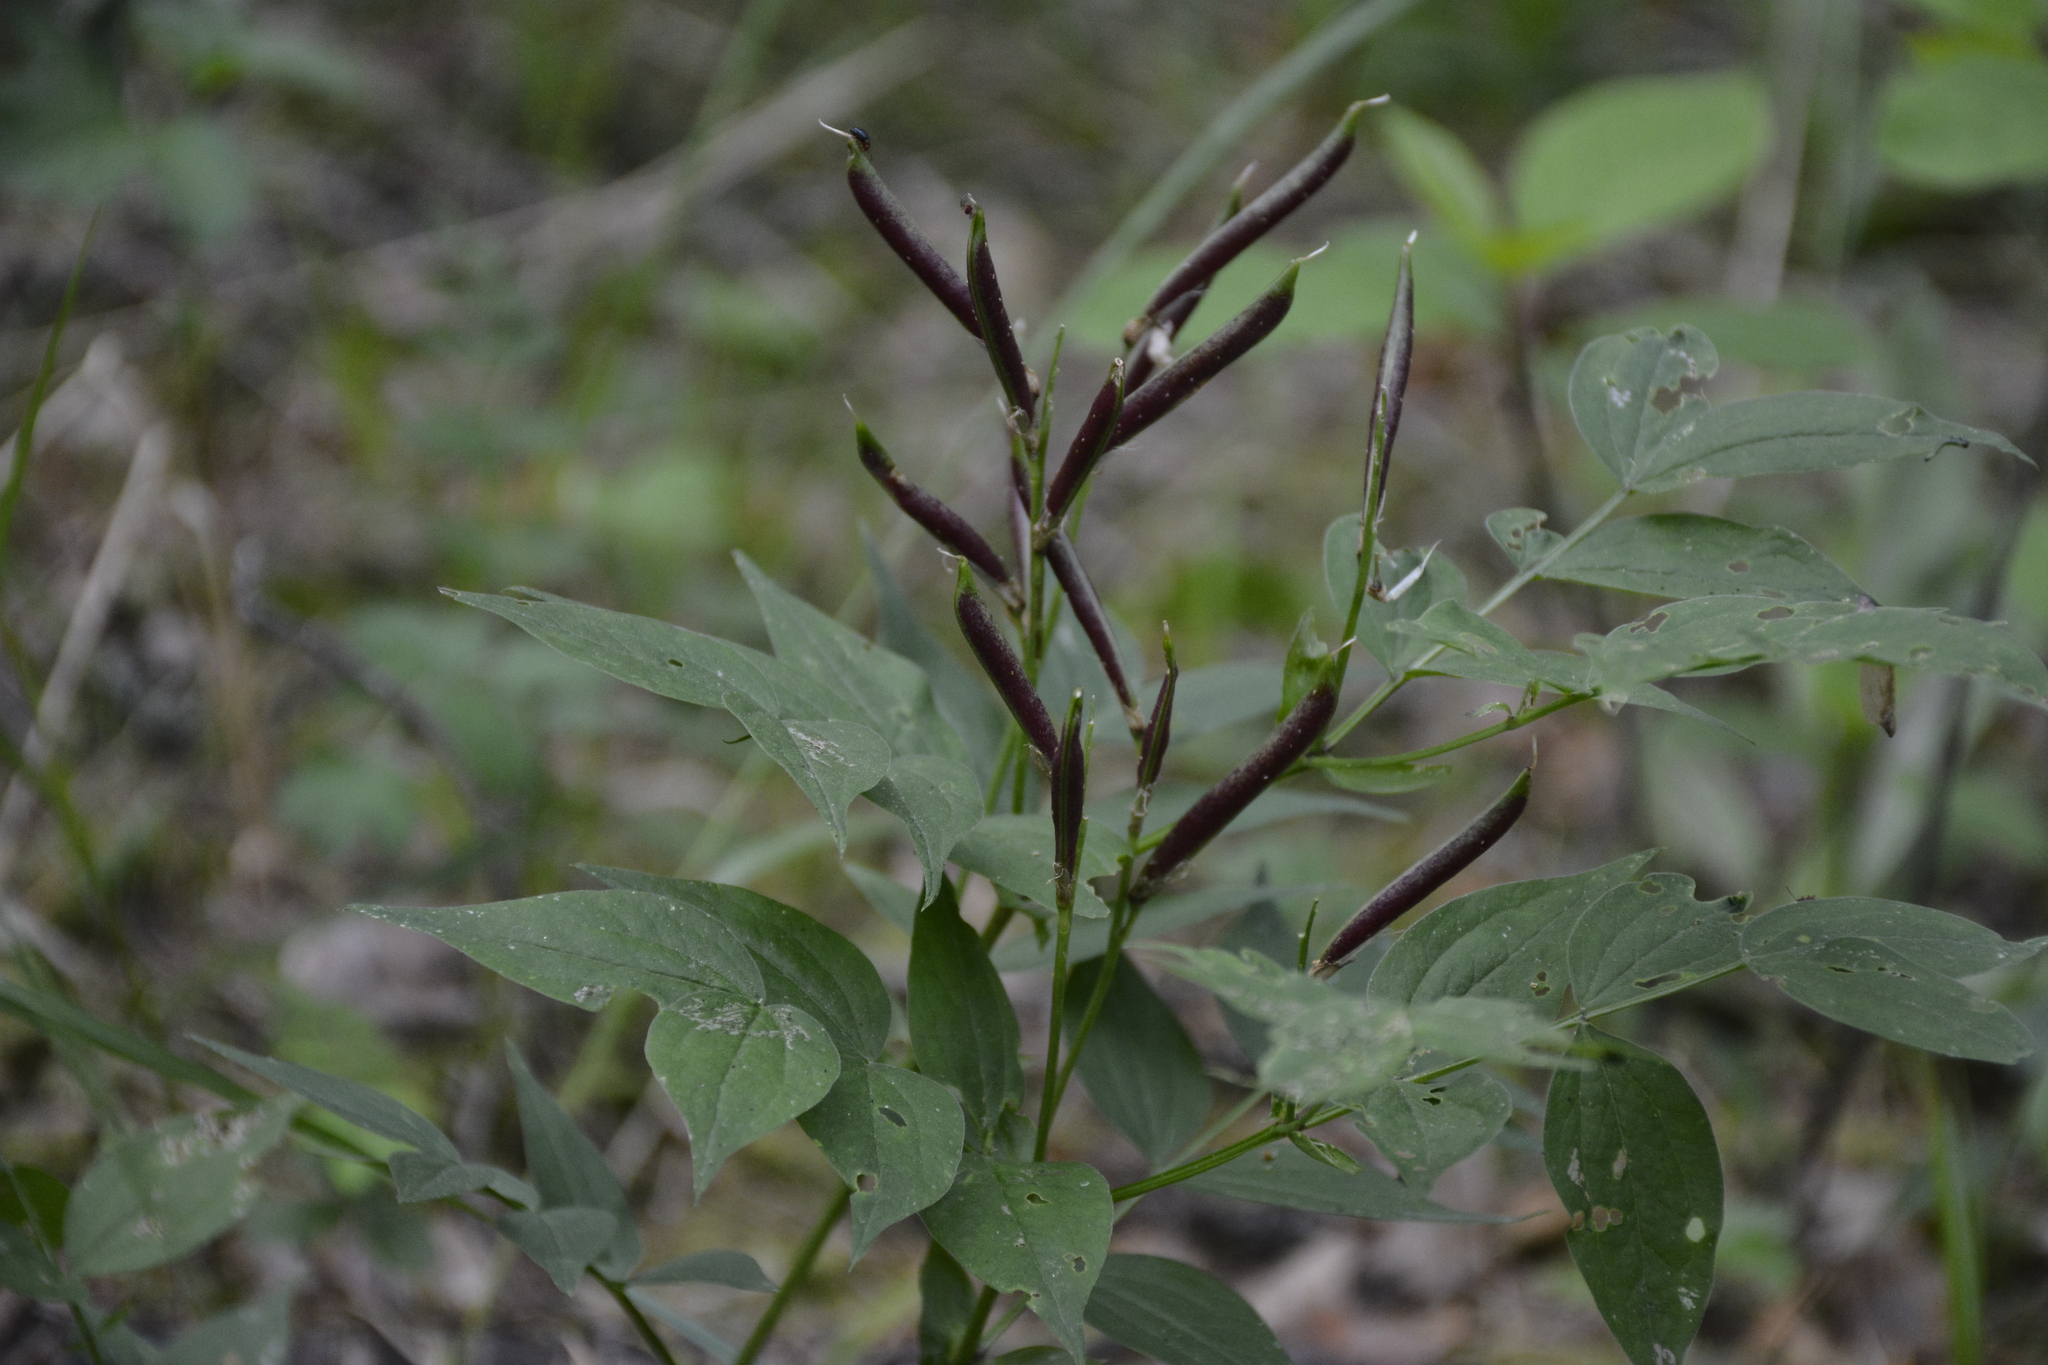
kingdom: Plantae
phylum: Tracheophyta
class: Magnoliopsida
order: Fabales
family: Fabaceae
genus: Lathyrus
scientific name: Lathyrus vernus
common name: Spring pea
